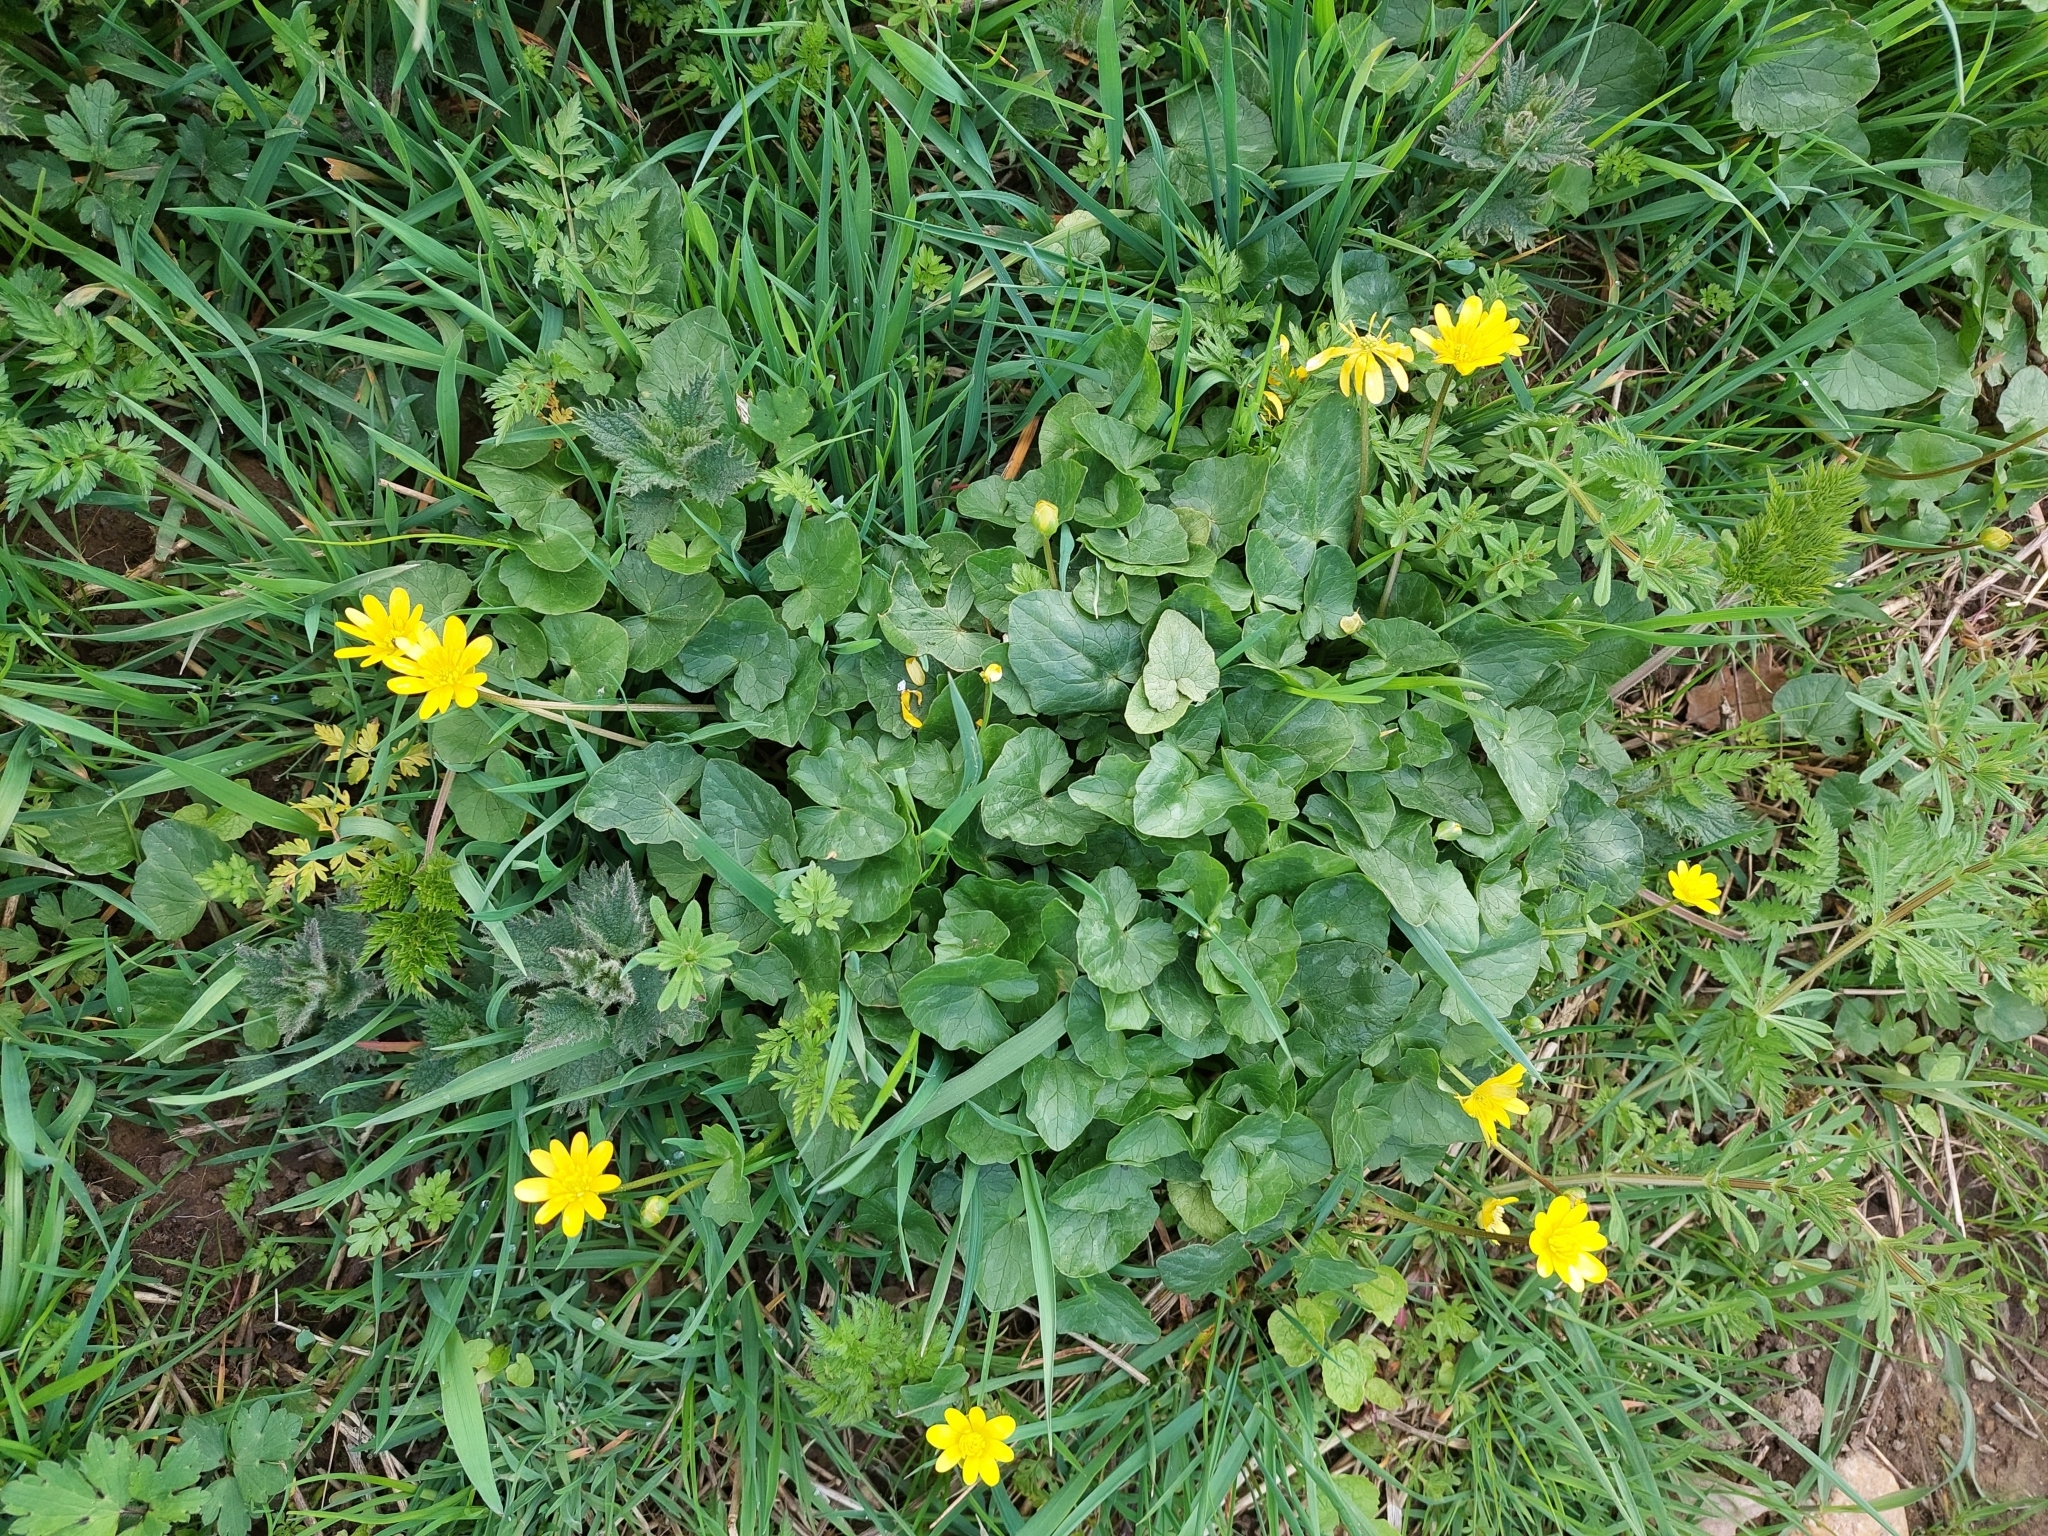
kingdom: Plantae
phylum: Tracheophyta
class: Magnoliopsida
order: Ranunculales
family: Ranunculaceae
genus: Ficaria
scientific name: Ficaria verna
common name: Lesser celandine
